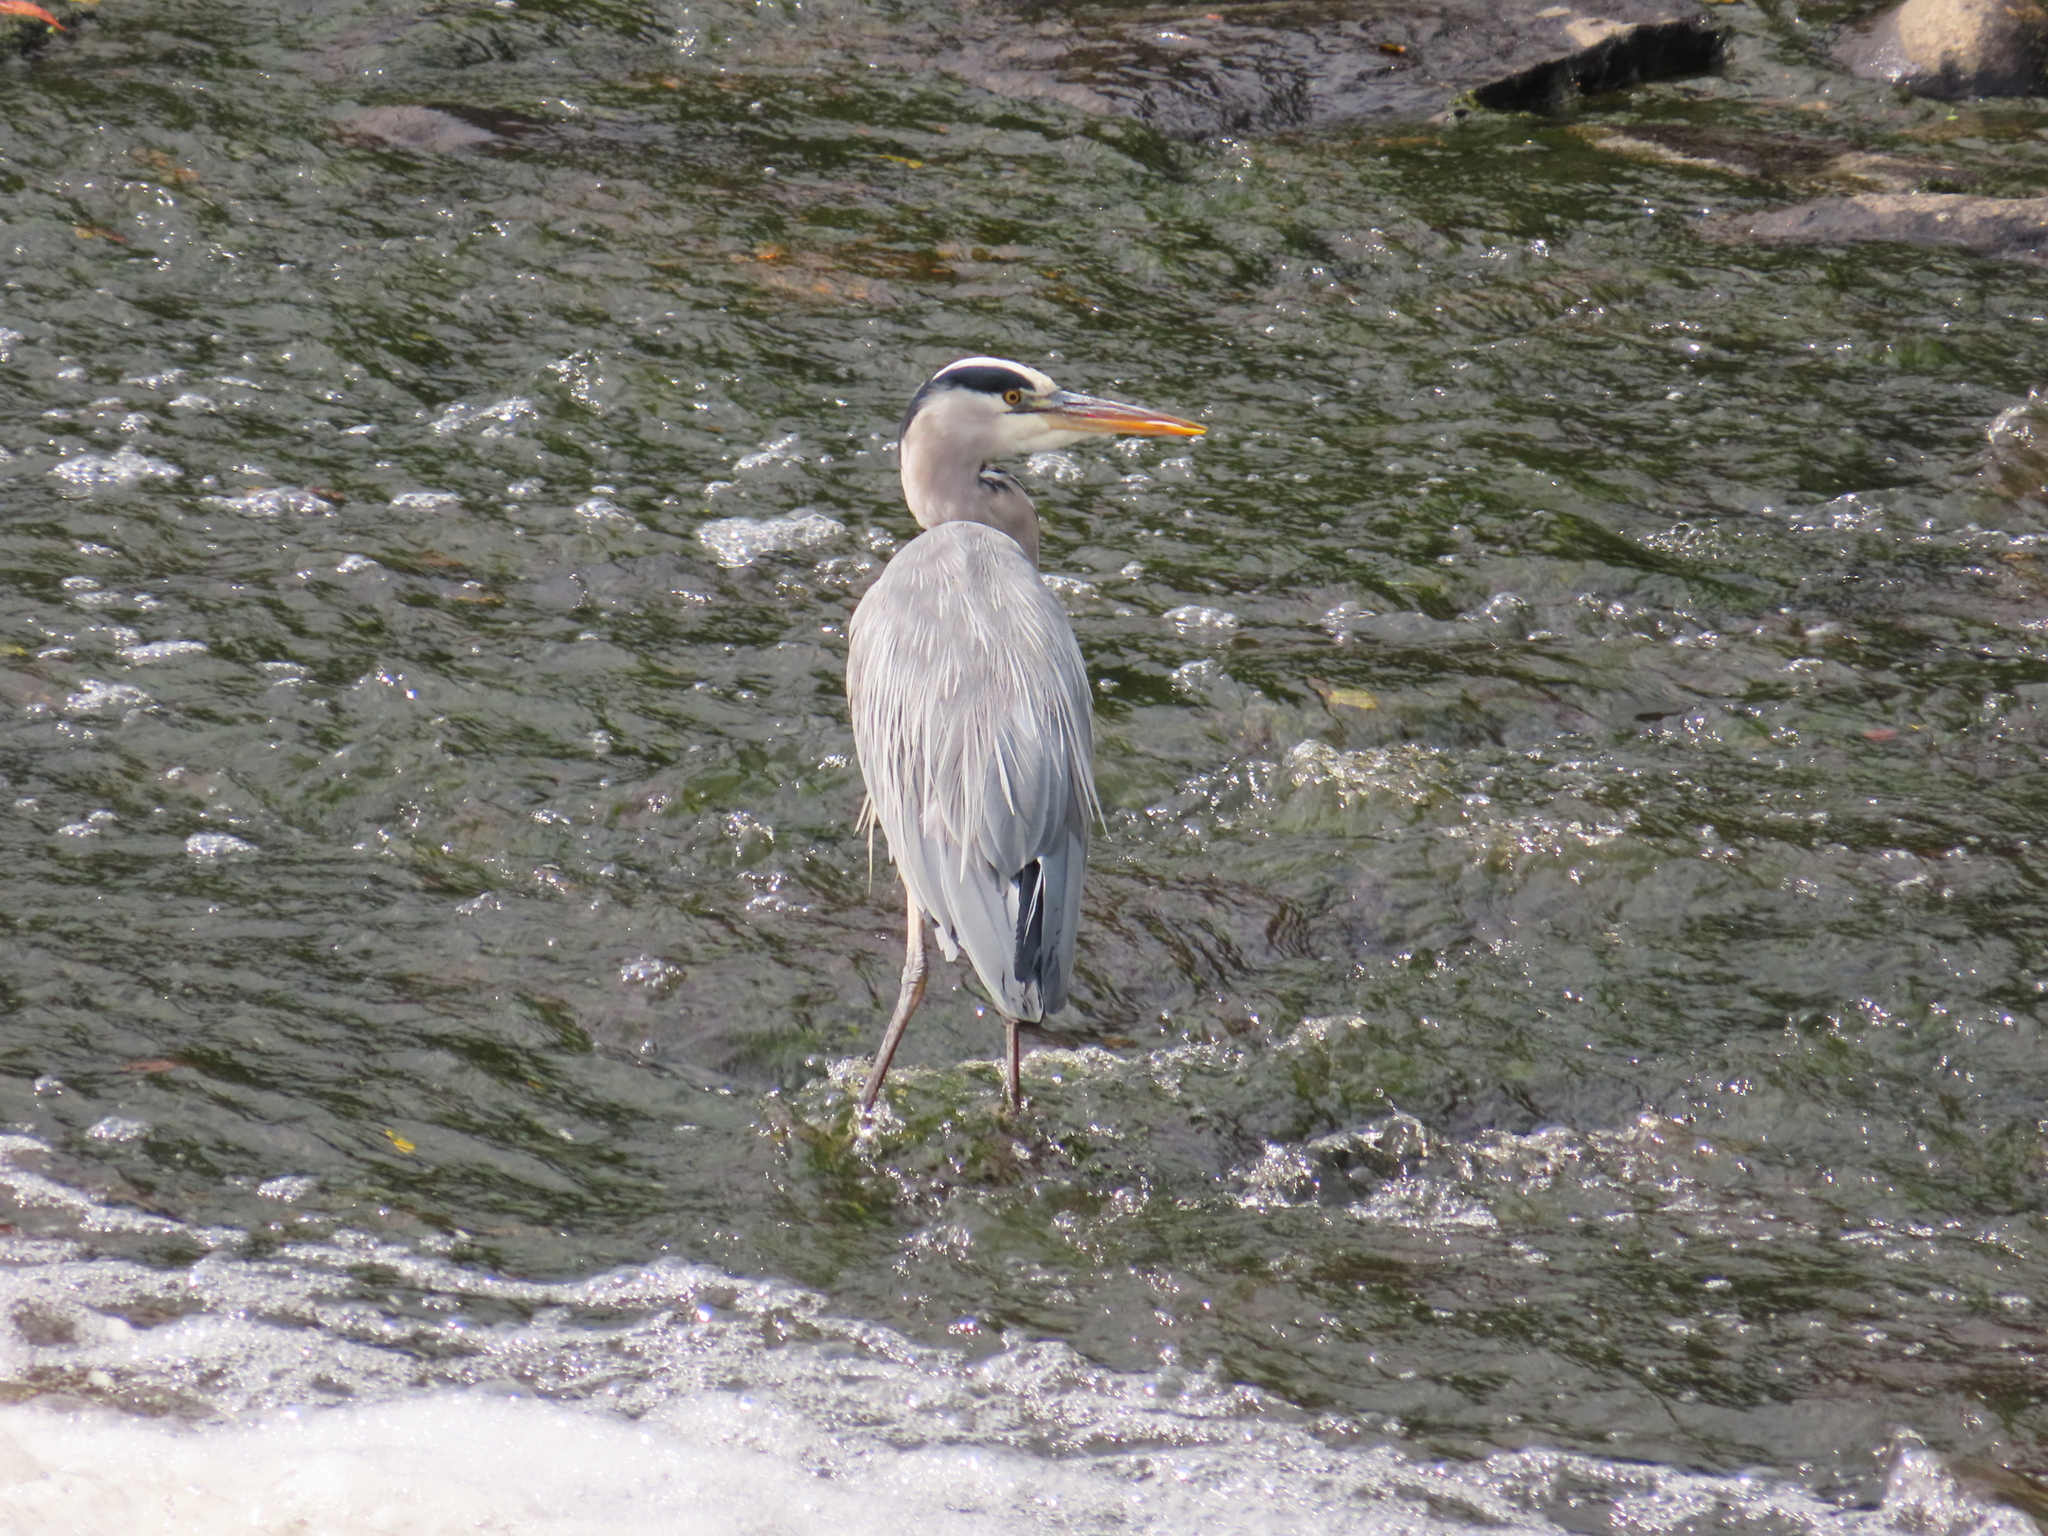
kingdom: Animalia
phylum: Chordata
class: Aves
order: Pelecaniformes
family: Ardeidae
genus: Ardea
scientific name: Ardea cinerea
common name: Grey heron
